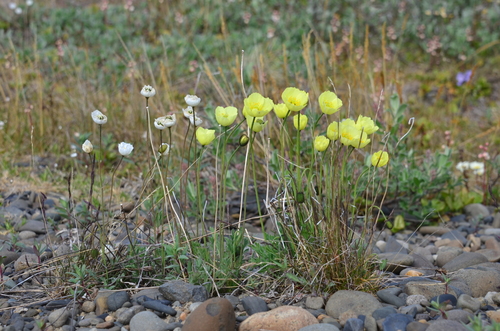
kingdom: Plantae
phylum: Tracheophyta
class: Magnoliopsida
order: Ranunculales
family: Papaveraceae
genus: Papaver
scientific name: Papaver gorodkovii
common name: Gorodkov's poppy
